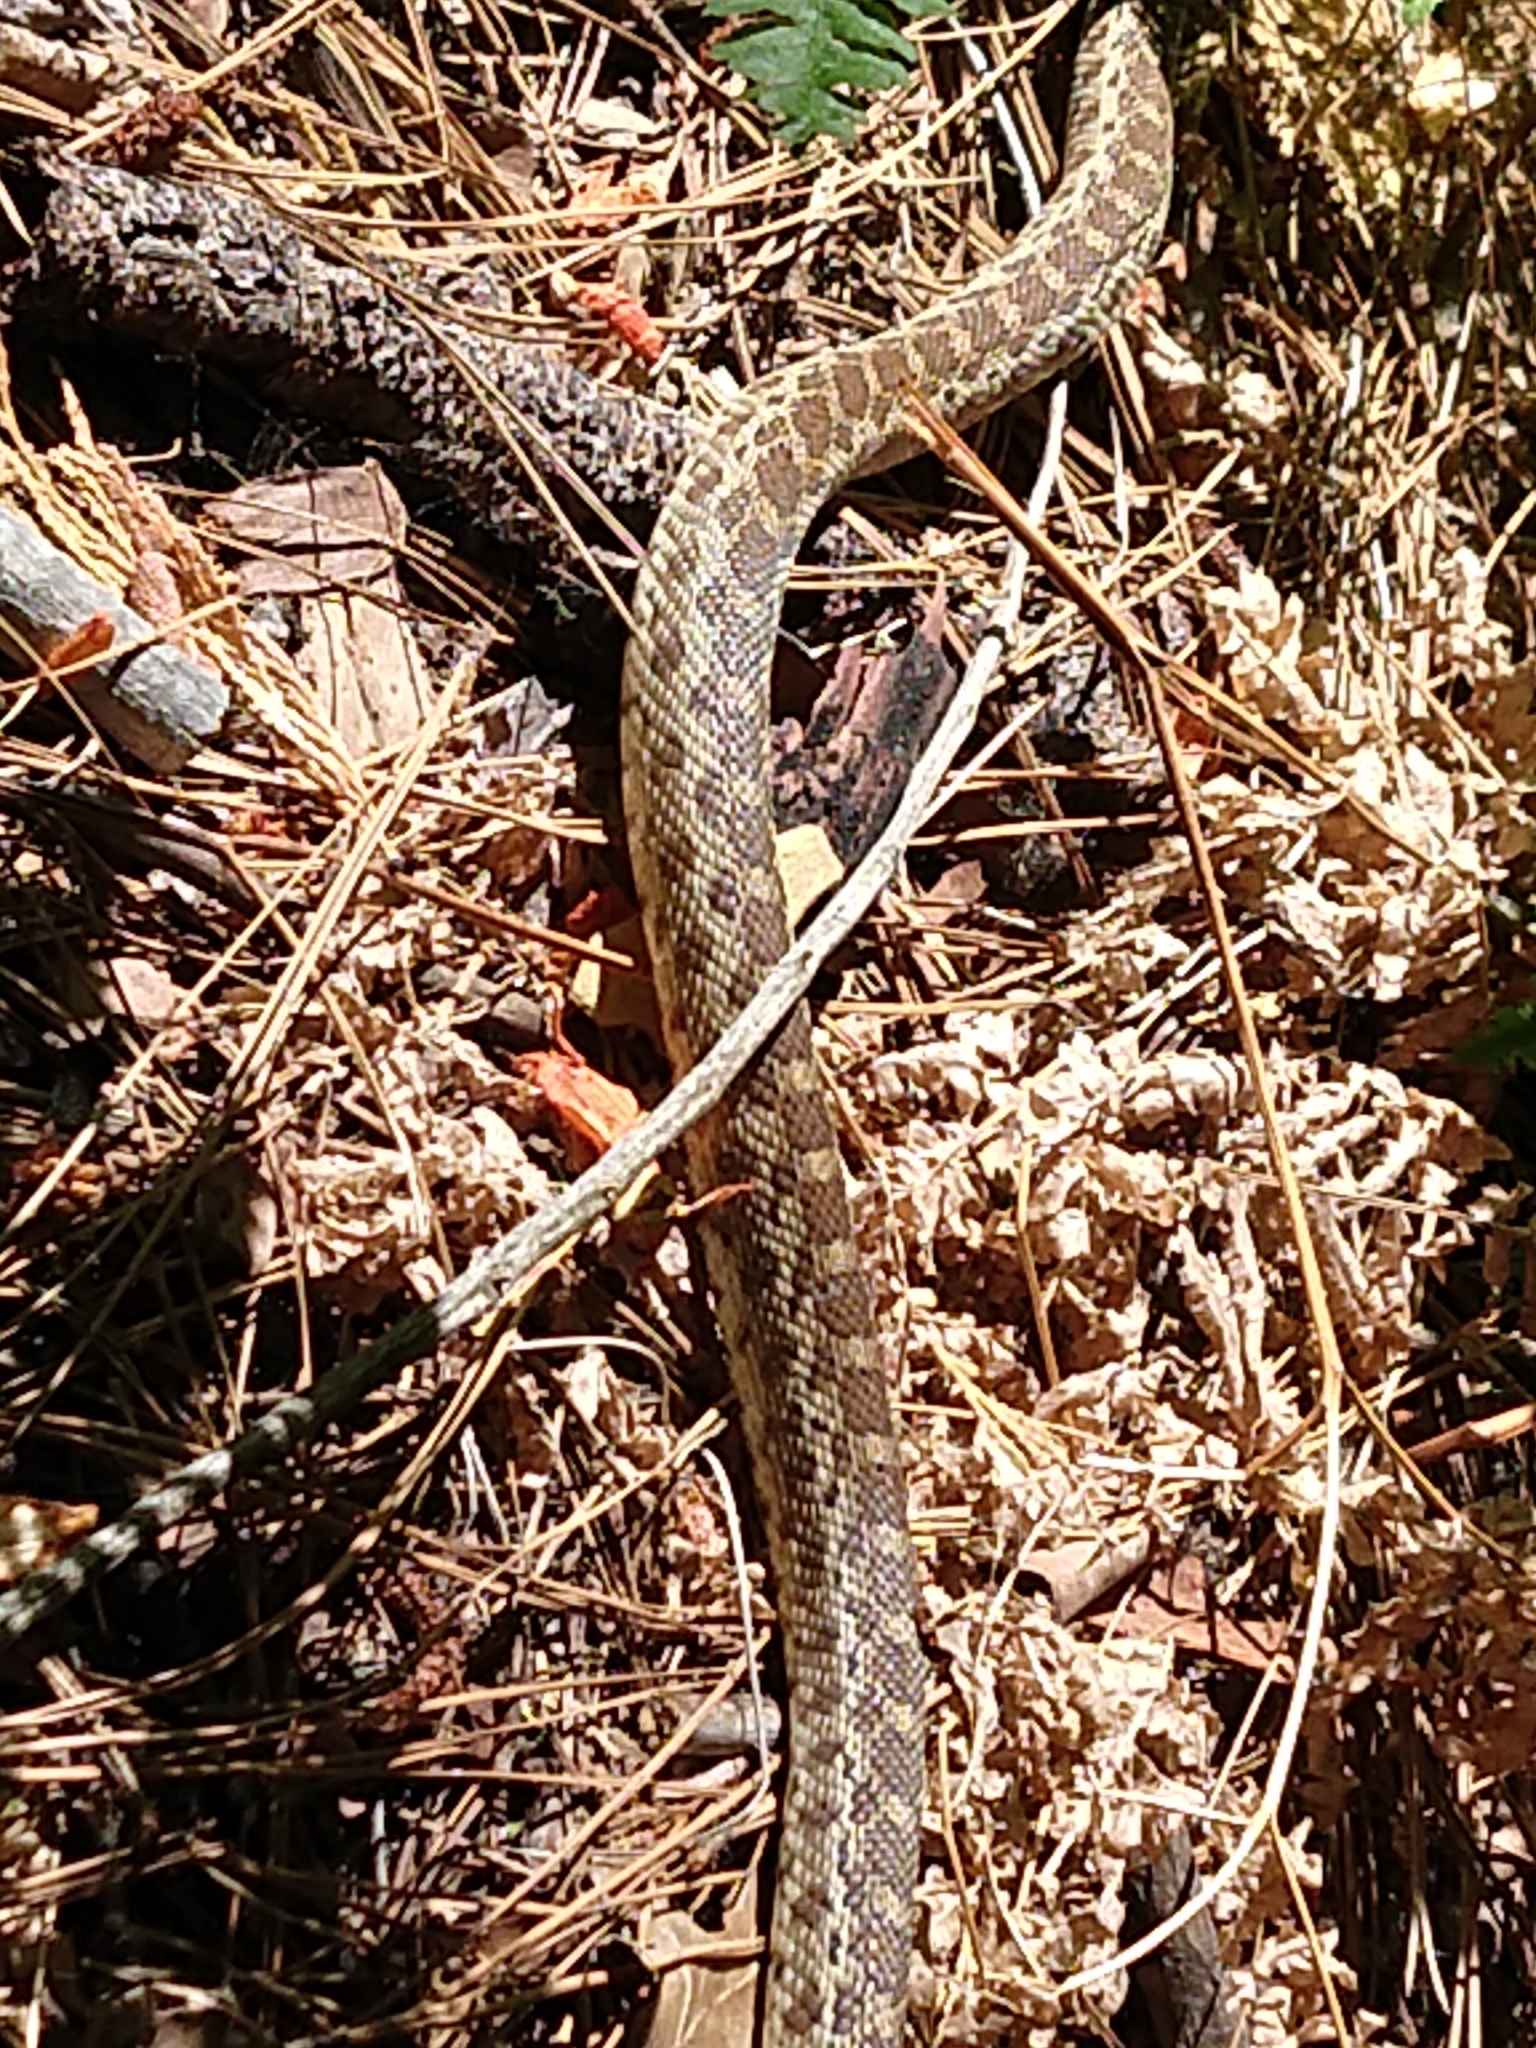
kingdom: Animalia
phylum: Chordata
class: Squamata
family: Colubridae
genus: Pituophis
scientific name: Pituophis catenifer
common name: Gopher snake
